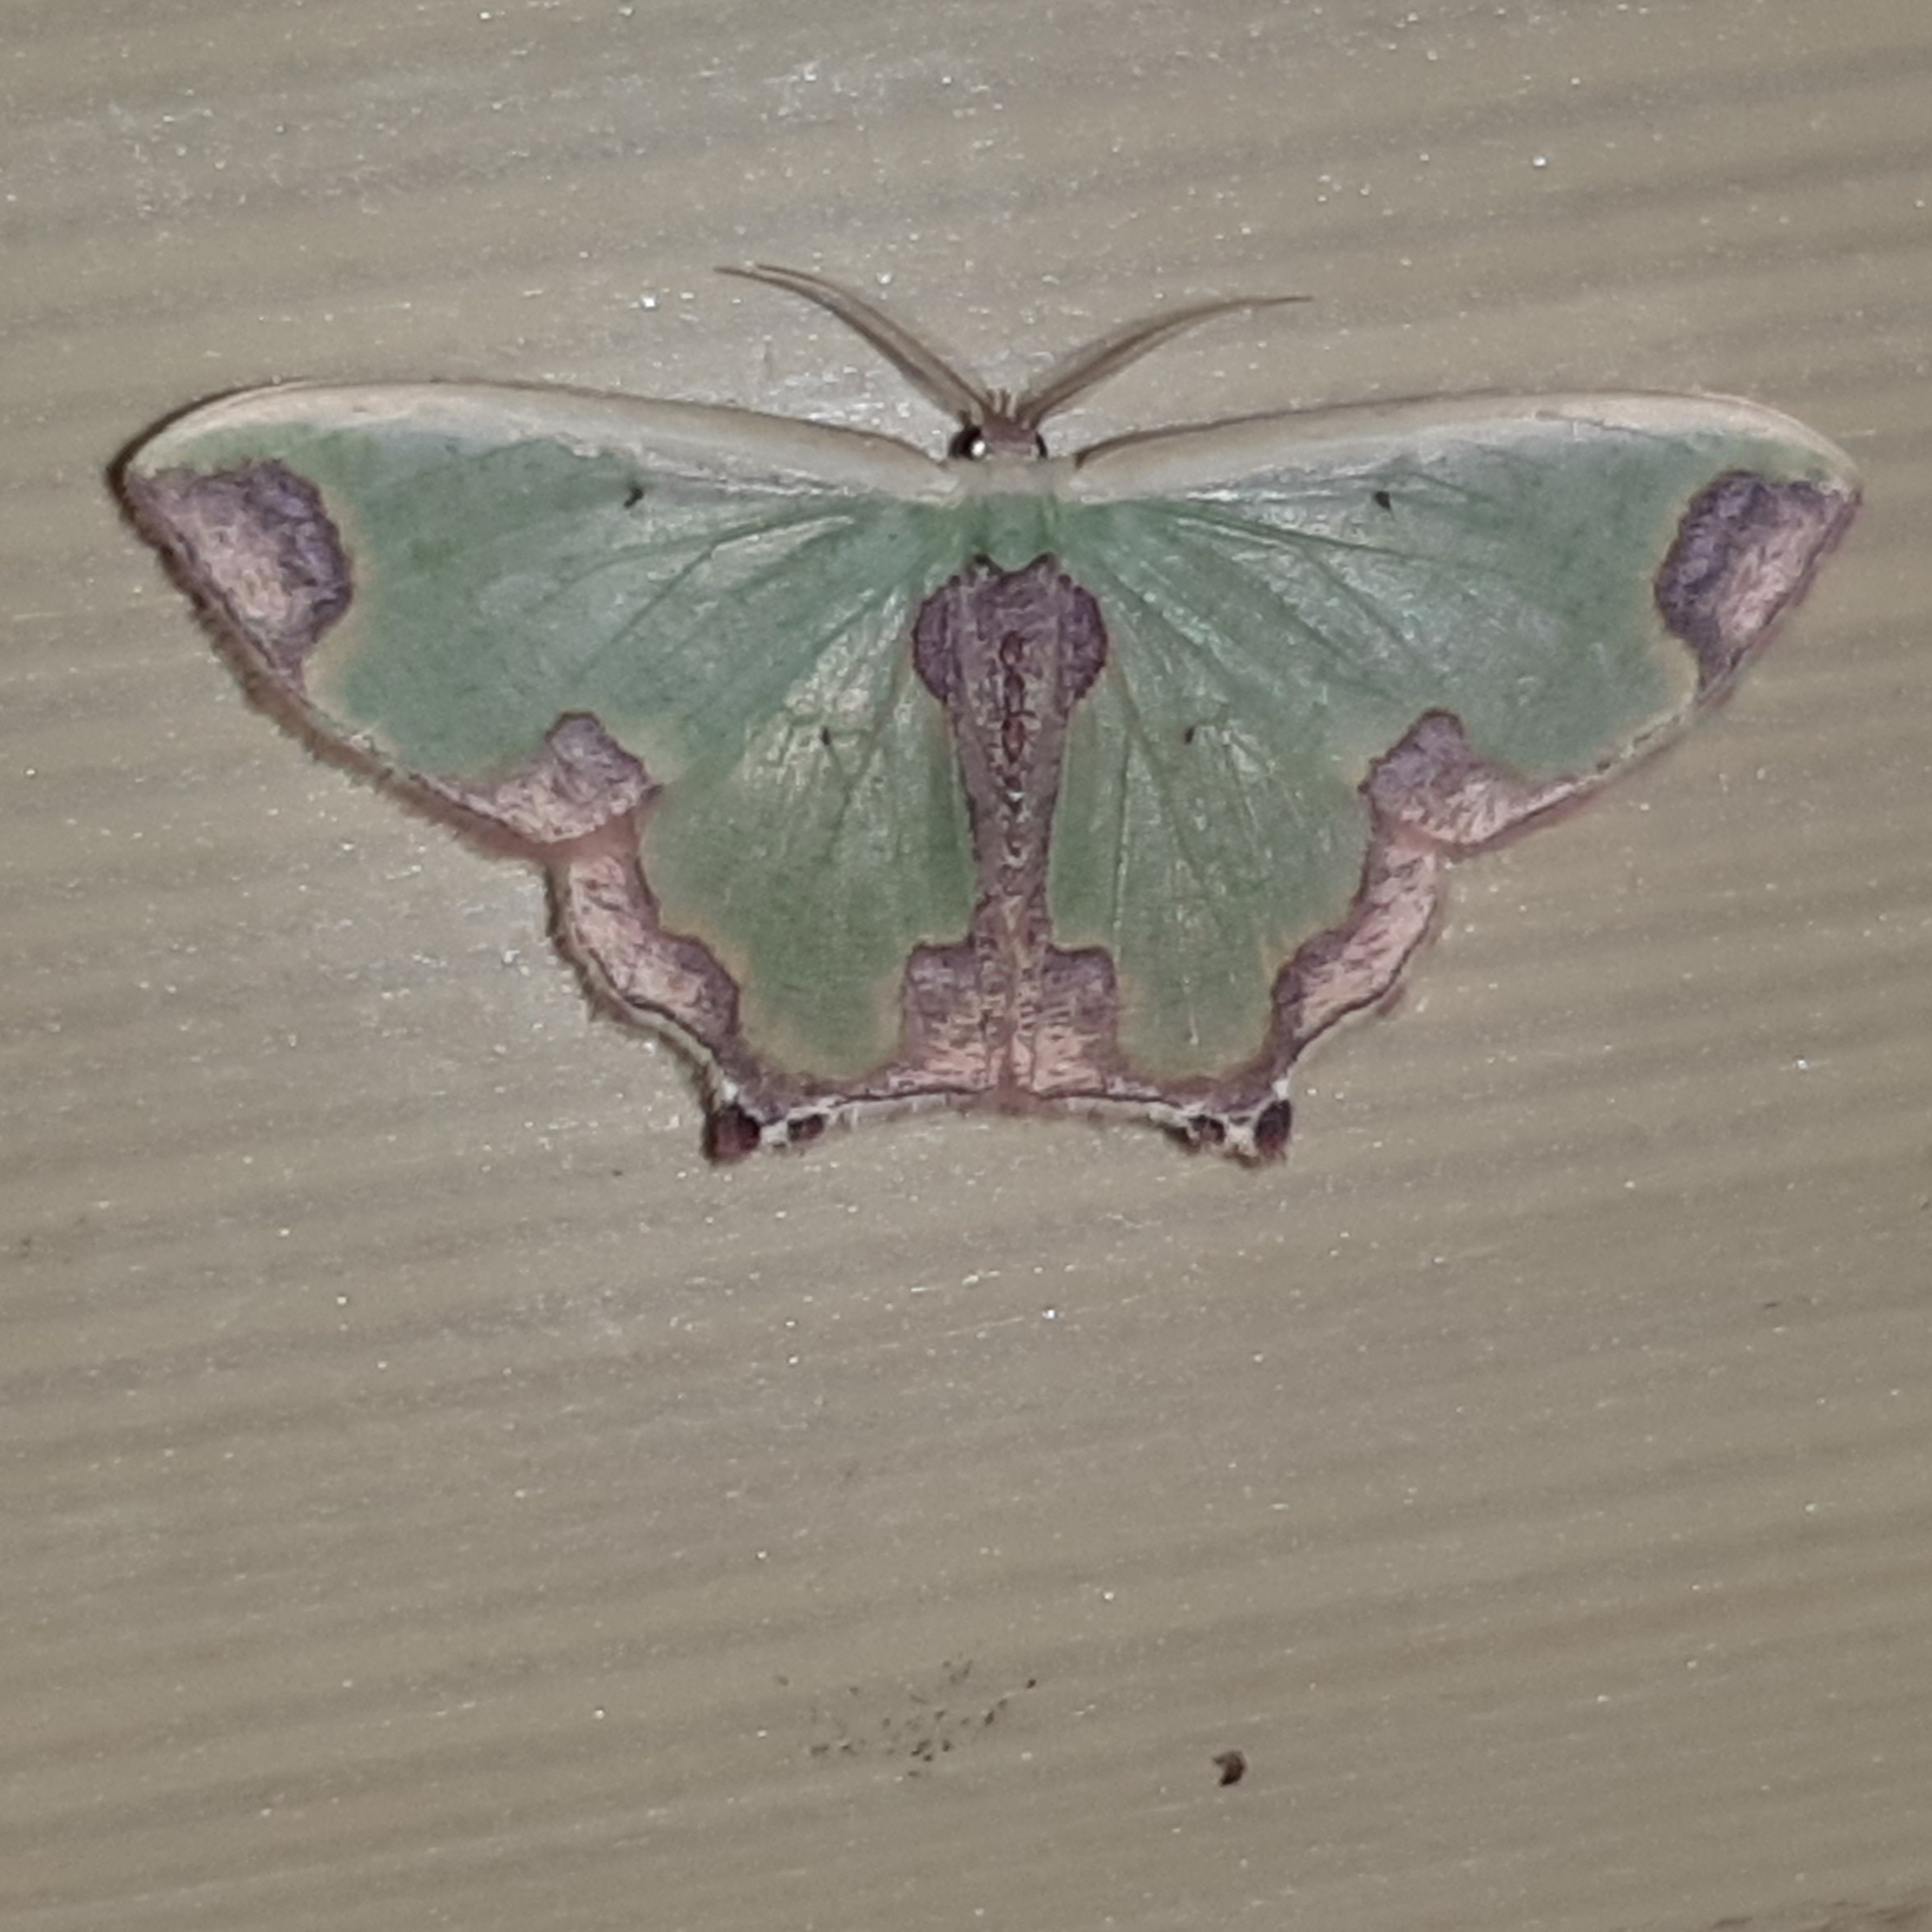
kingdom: Animalia
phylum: Arthropoda
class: Insecta
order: Lepidoptera
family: Geometridae
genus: Oospila
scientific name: Oospila asmura
